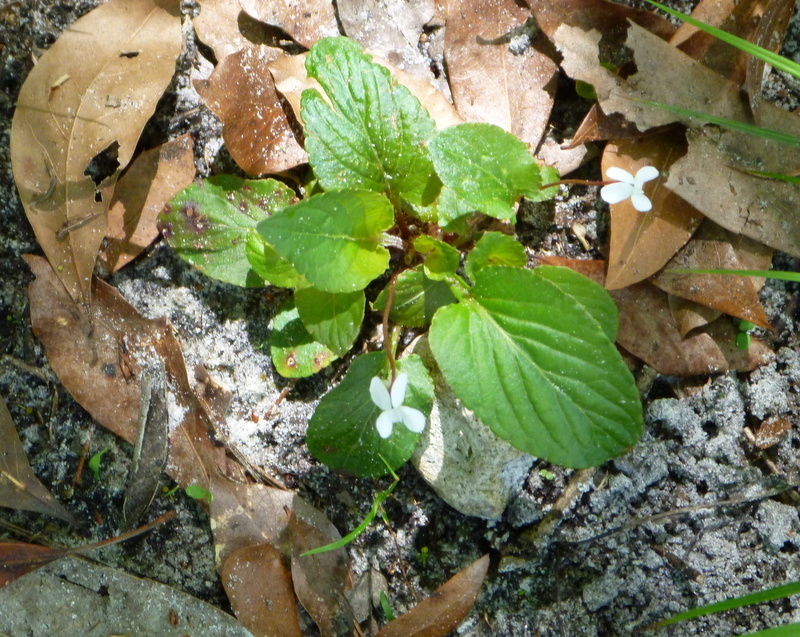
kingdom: Plantae
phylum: Tracheophyta
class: Magnoliopsida
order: Malpighiales
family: Violaceae
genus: Viola
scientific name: Viola primulifolia
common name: Primrose-leaf violet
